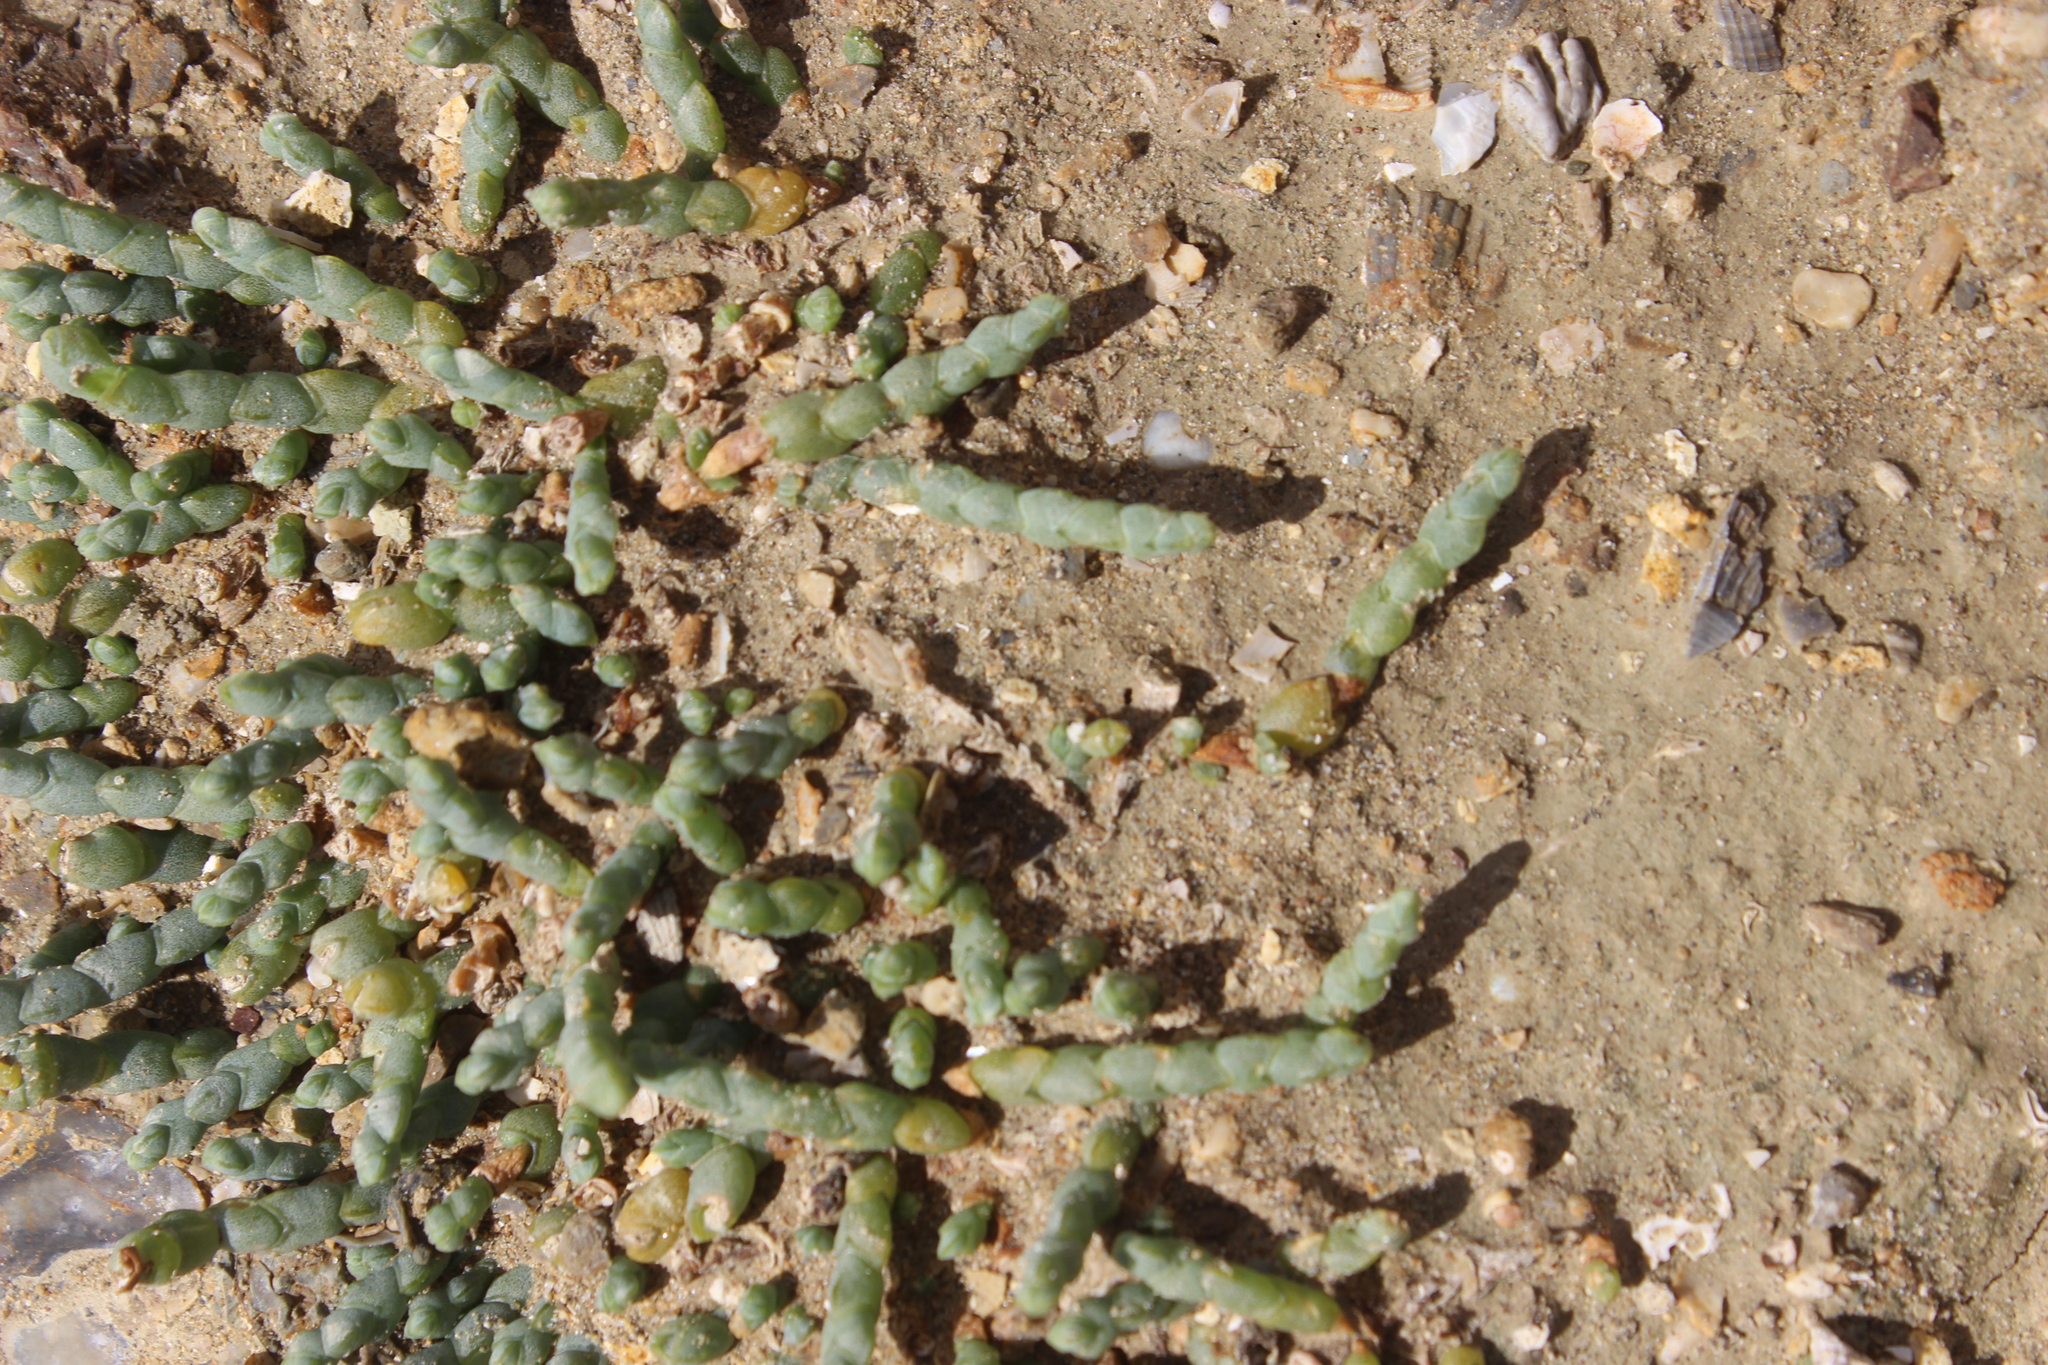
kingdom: Plantae
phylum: Tracheophyta
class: Magnoliopsida
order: Caryophyllales
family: Amaranthaceae
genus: Salicornia
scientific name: Salicornia quinqueflora
